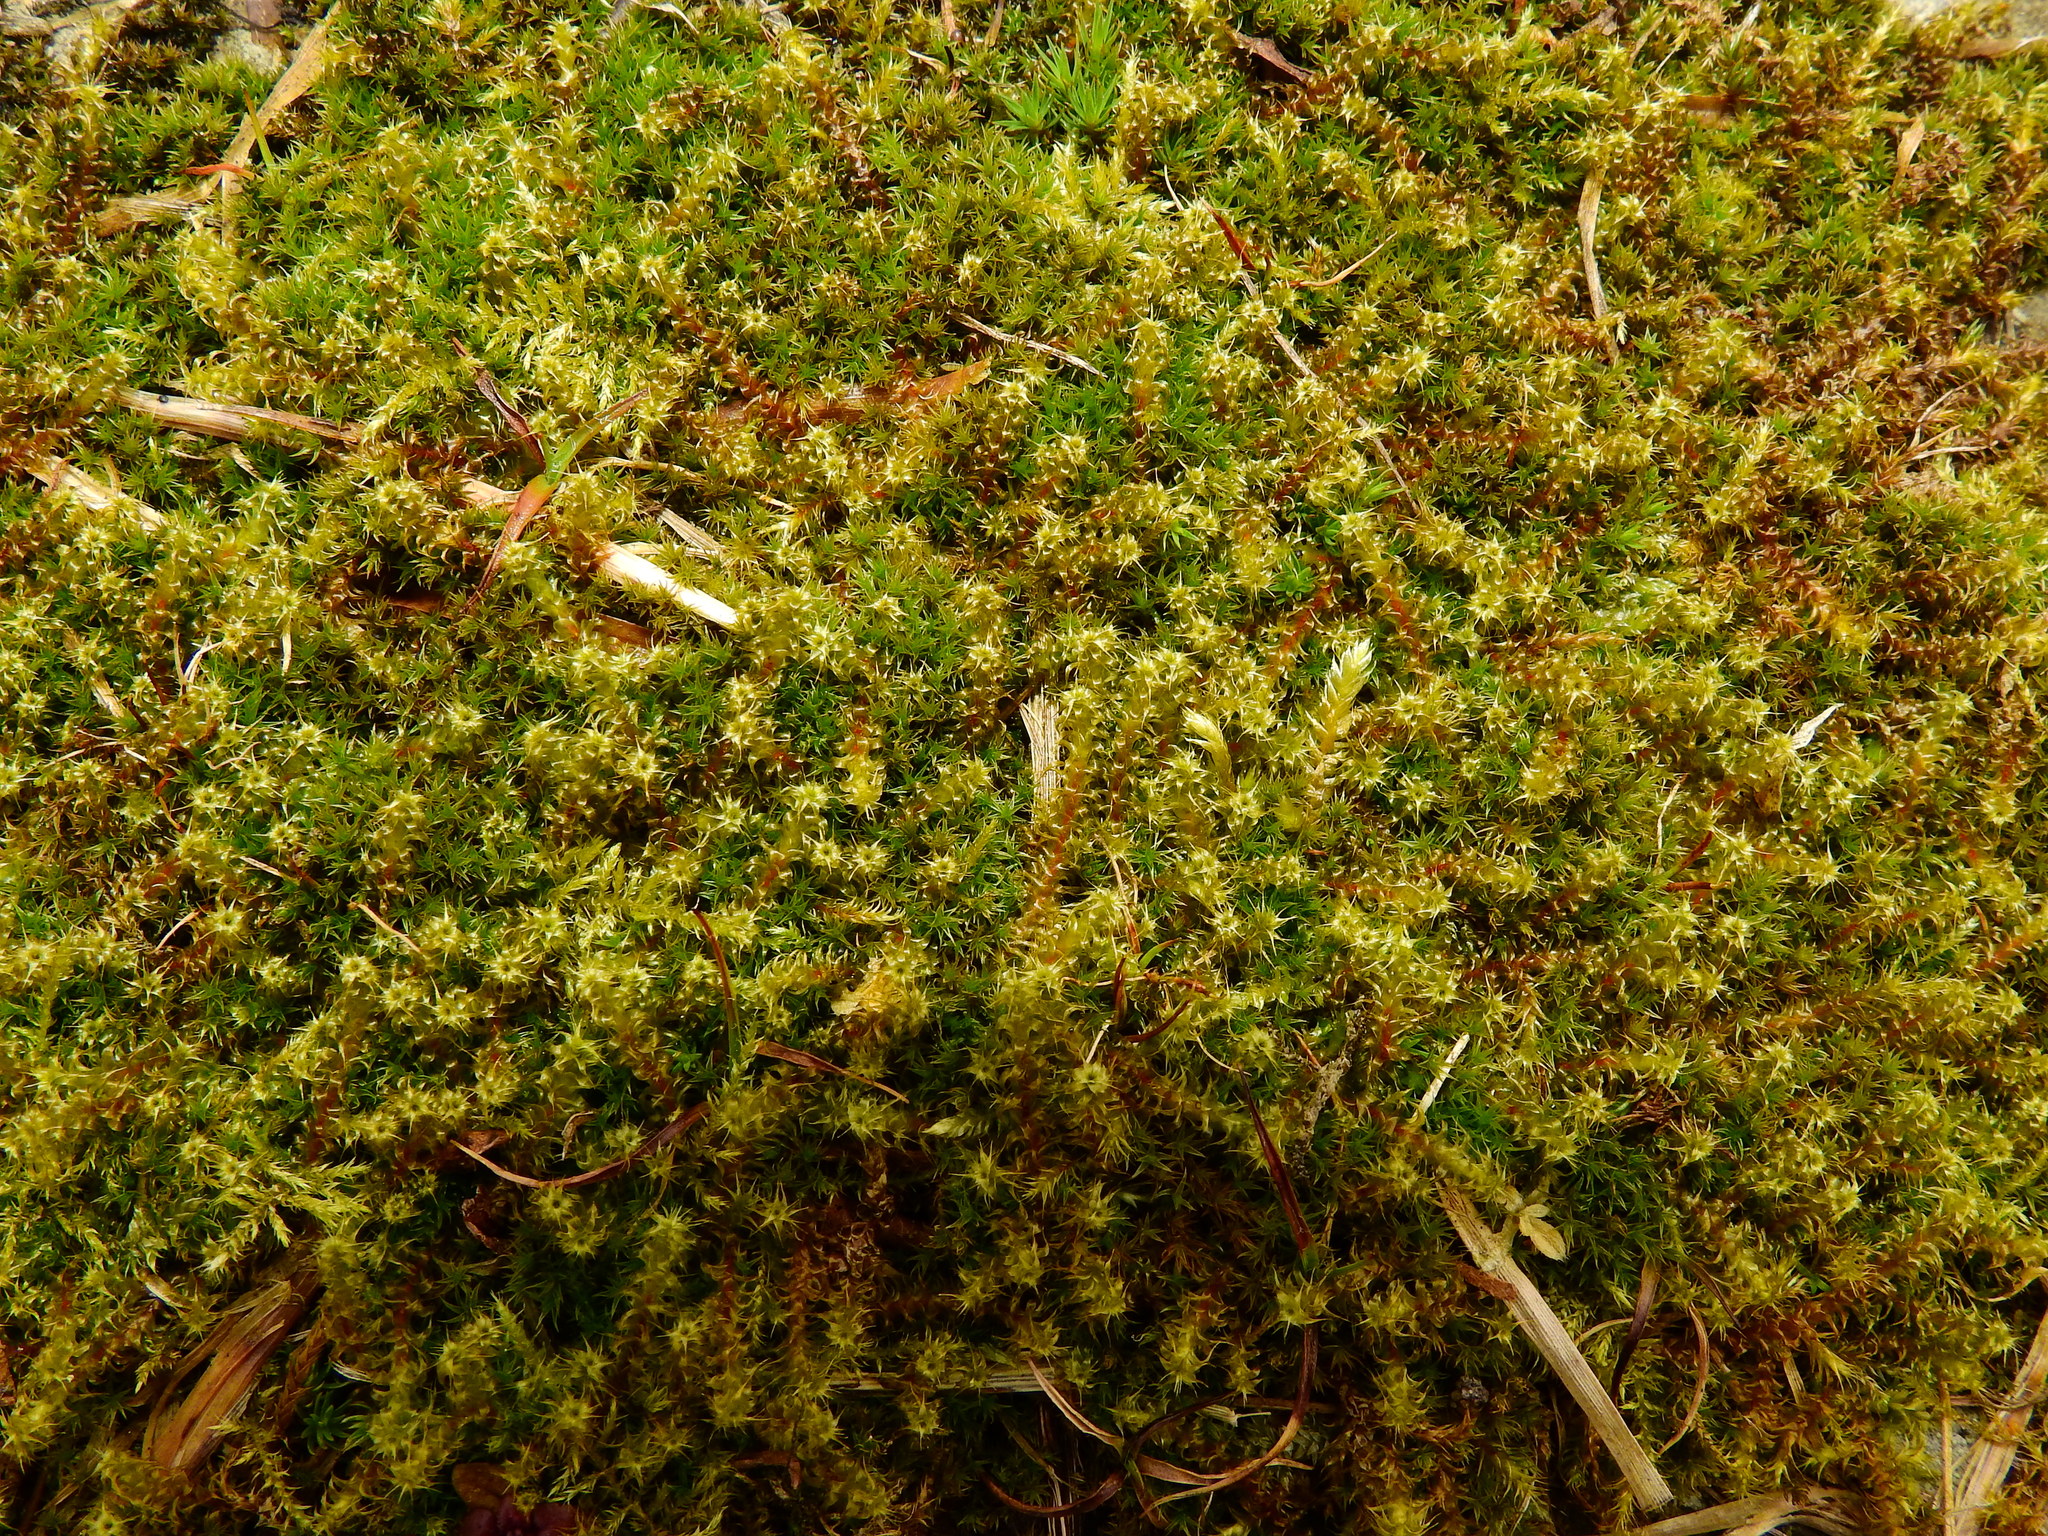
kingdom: Plantae
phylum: Bryophyta
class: Bryopsida
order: Hypnales
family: Hylocomiaceae
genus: Rhytidiadelphus
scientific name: Rhytidiadelphus squarrosus
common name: Springy turf-moss
